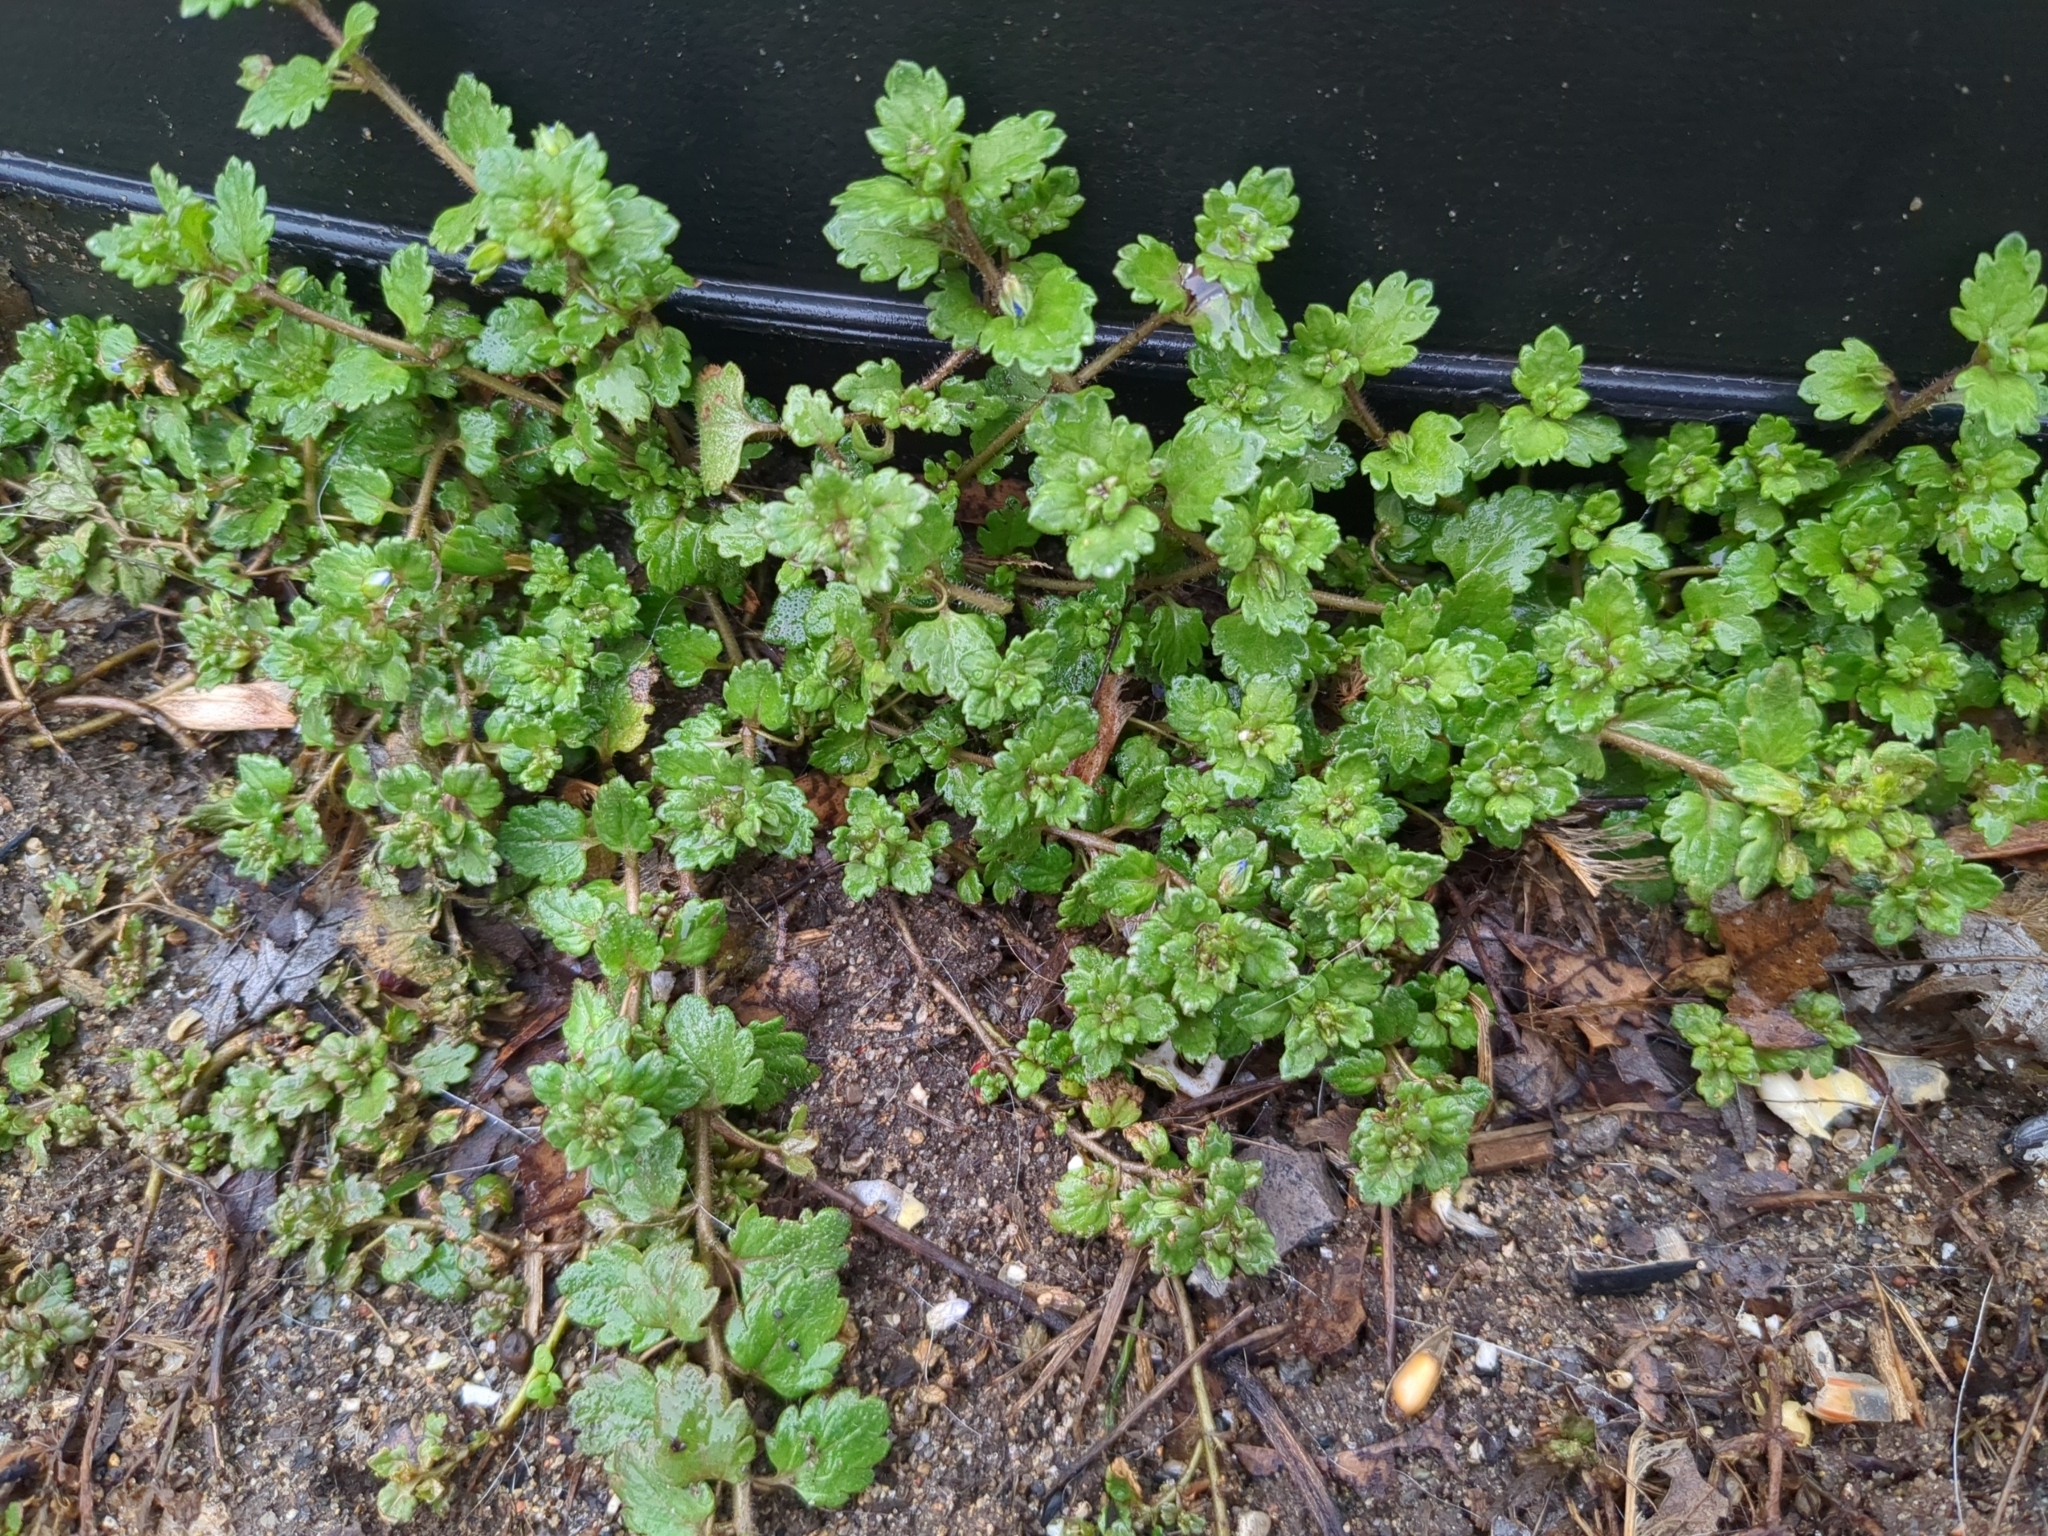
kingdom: Plantae
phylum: Tracheophyta
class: Magnoliopsida
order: Lamiales
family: Plantaginaceae
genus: Veronica
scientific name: Veronica persica
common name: Common field-speedwell
